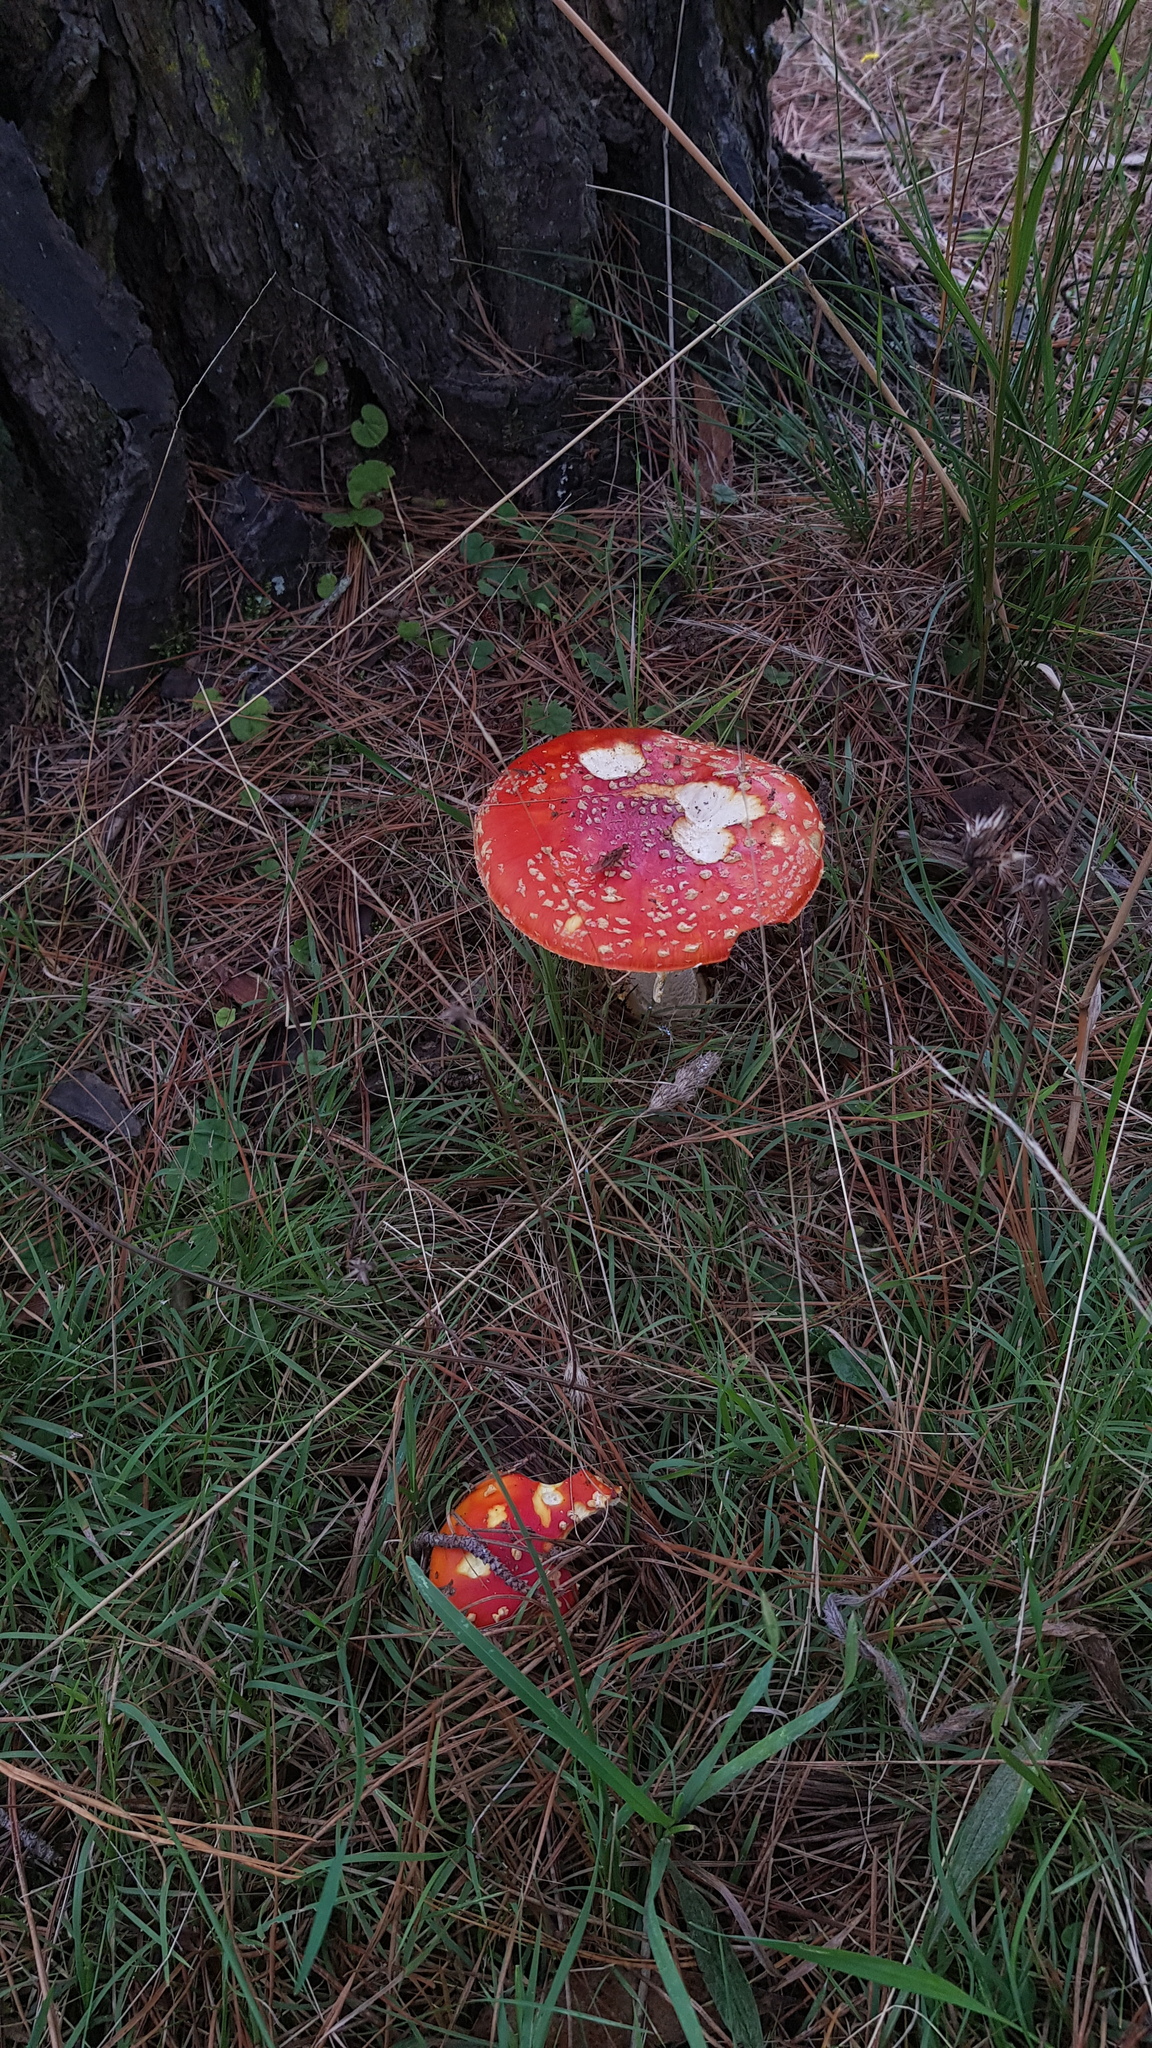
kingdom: Fungi
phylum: Basidiomycota
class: Agaricomycetes
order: Agaricales
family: Amanitaceae
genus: Amanita
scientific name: Amanita muscaria
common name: Fly agaric
